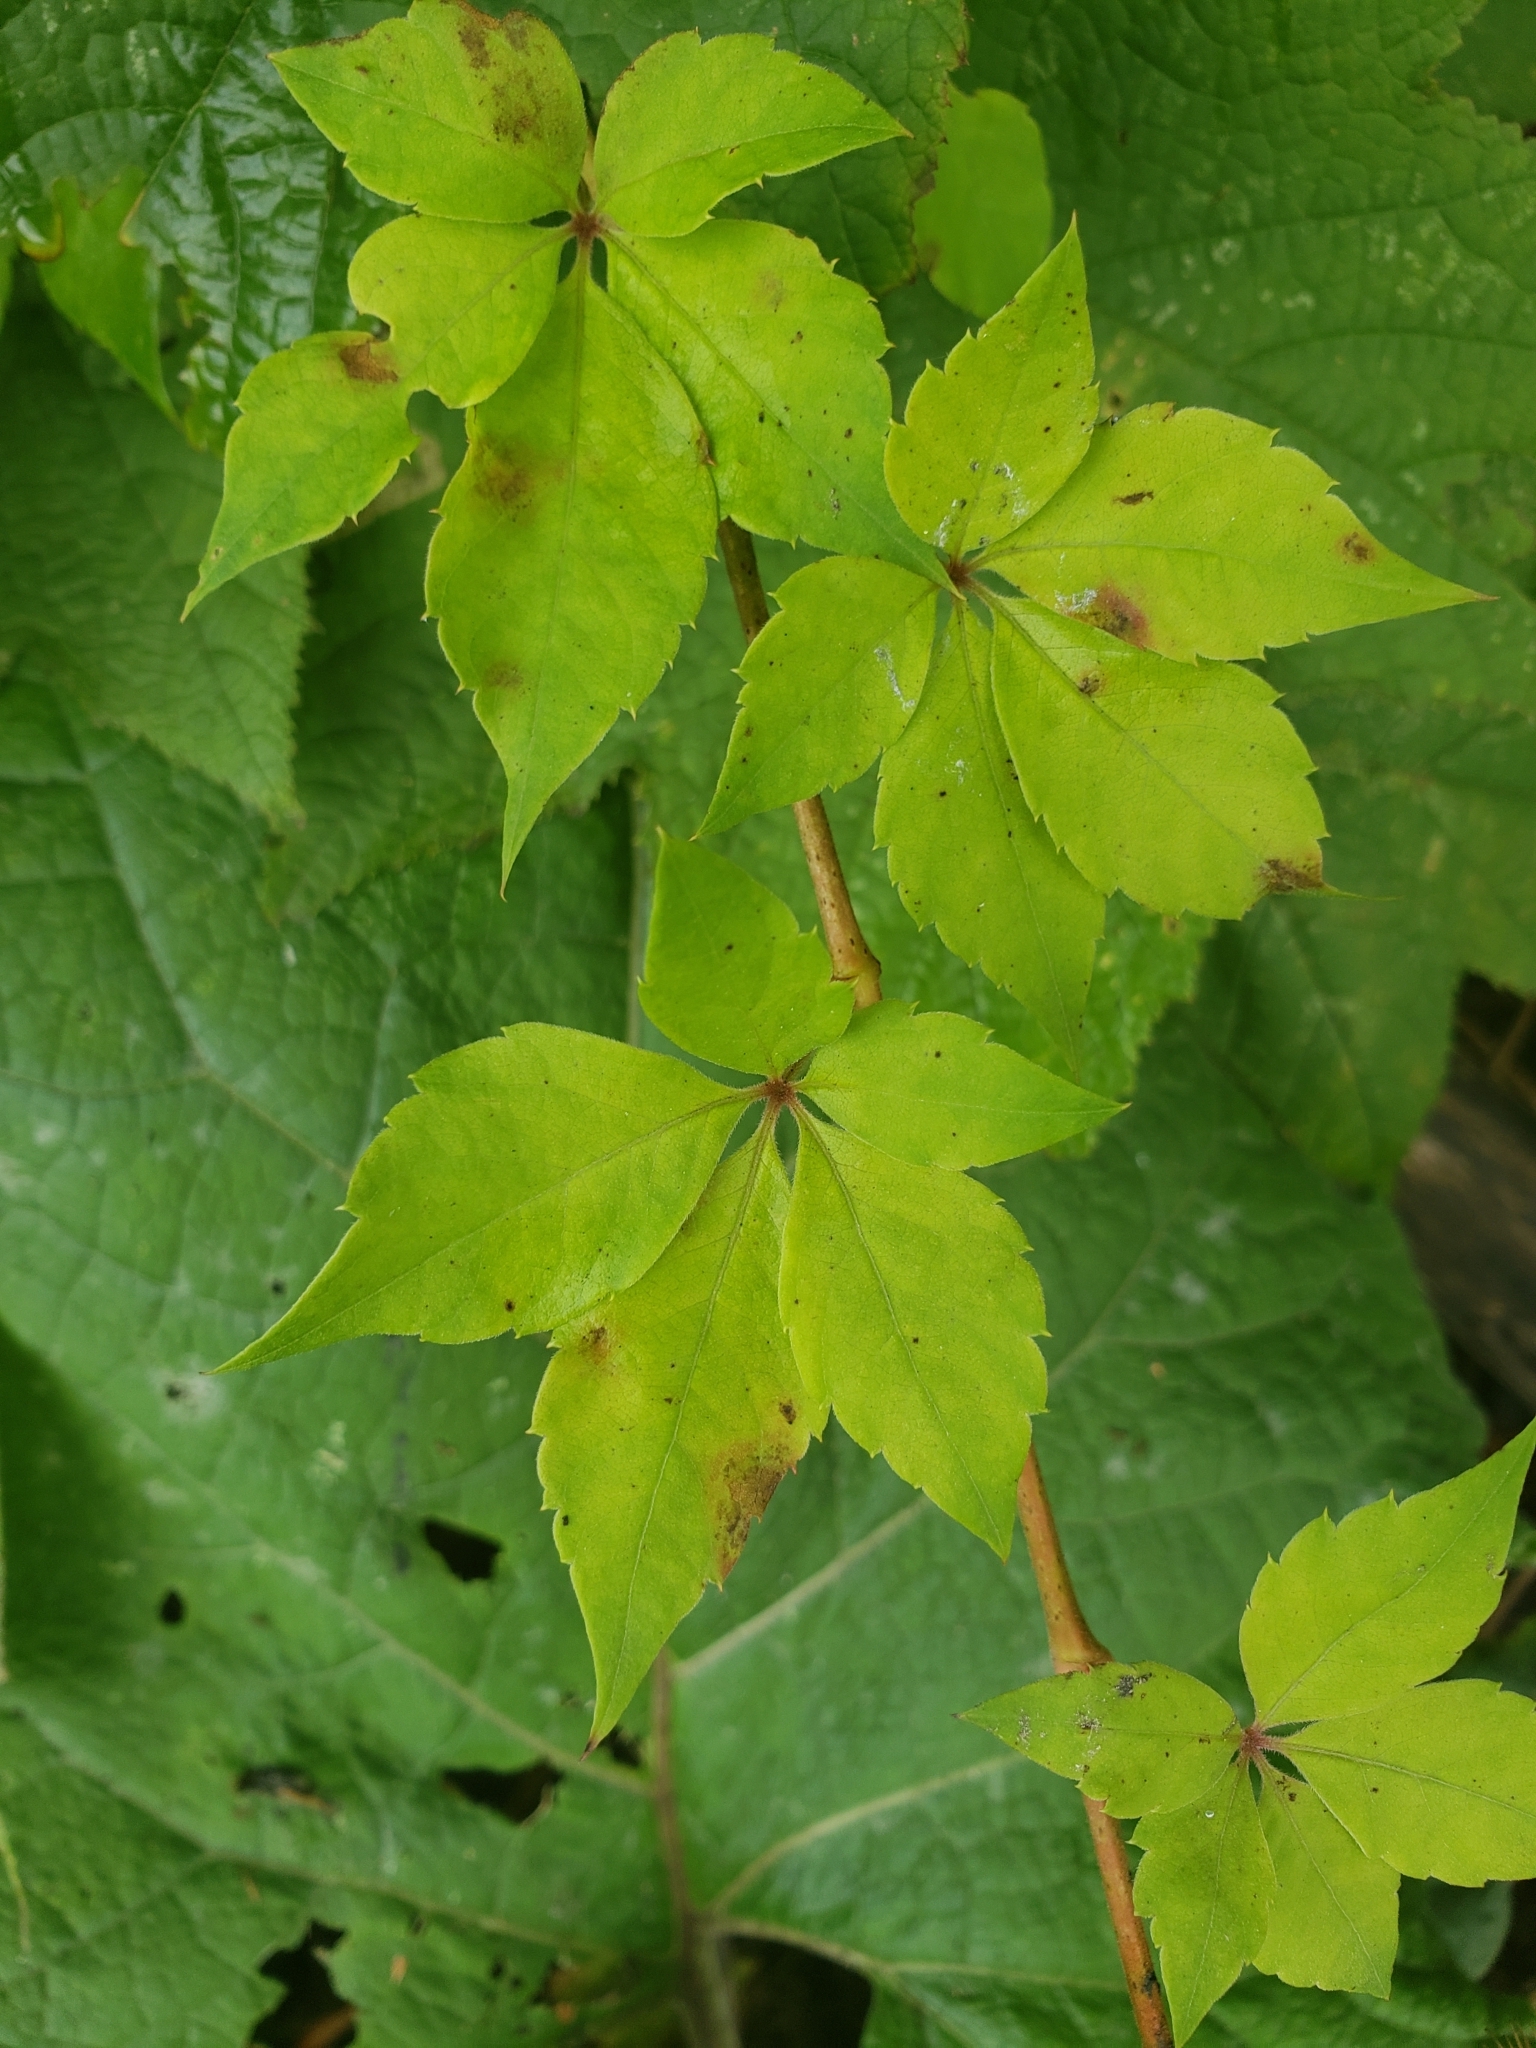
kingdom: Plantae
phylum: Tracheophyta
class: Magnoliopsida
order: Vitales
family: Vitaceae
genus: Parthenocissus
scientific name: Parthenocissus quinquefolia
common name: Virginia-creeper
